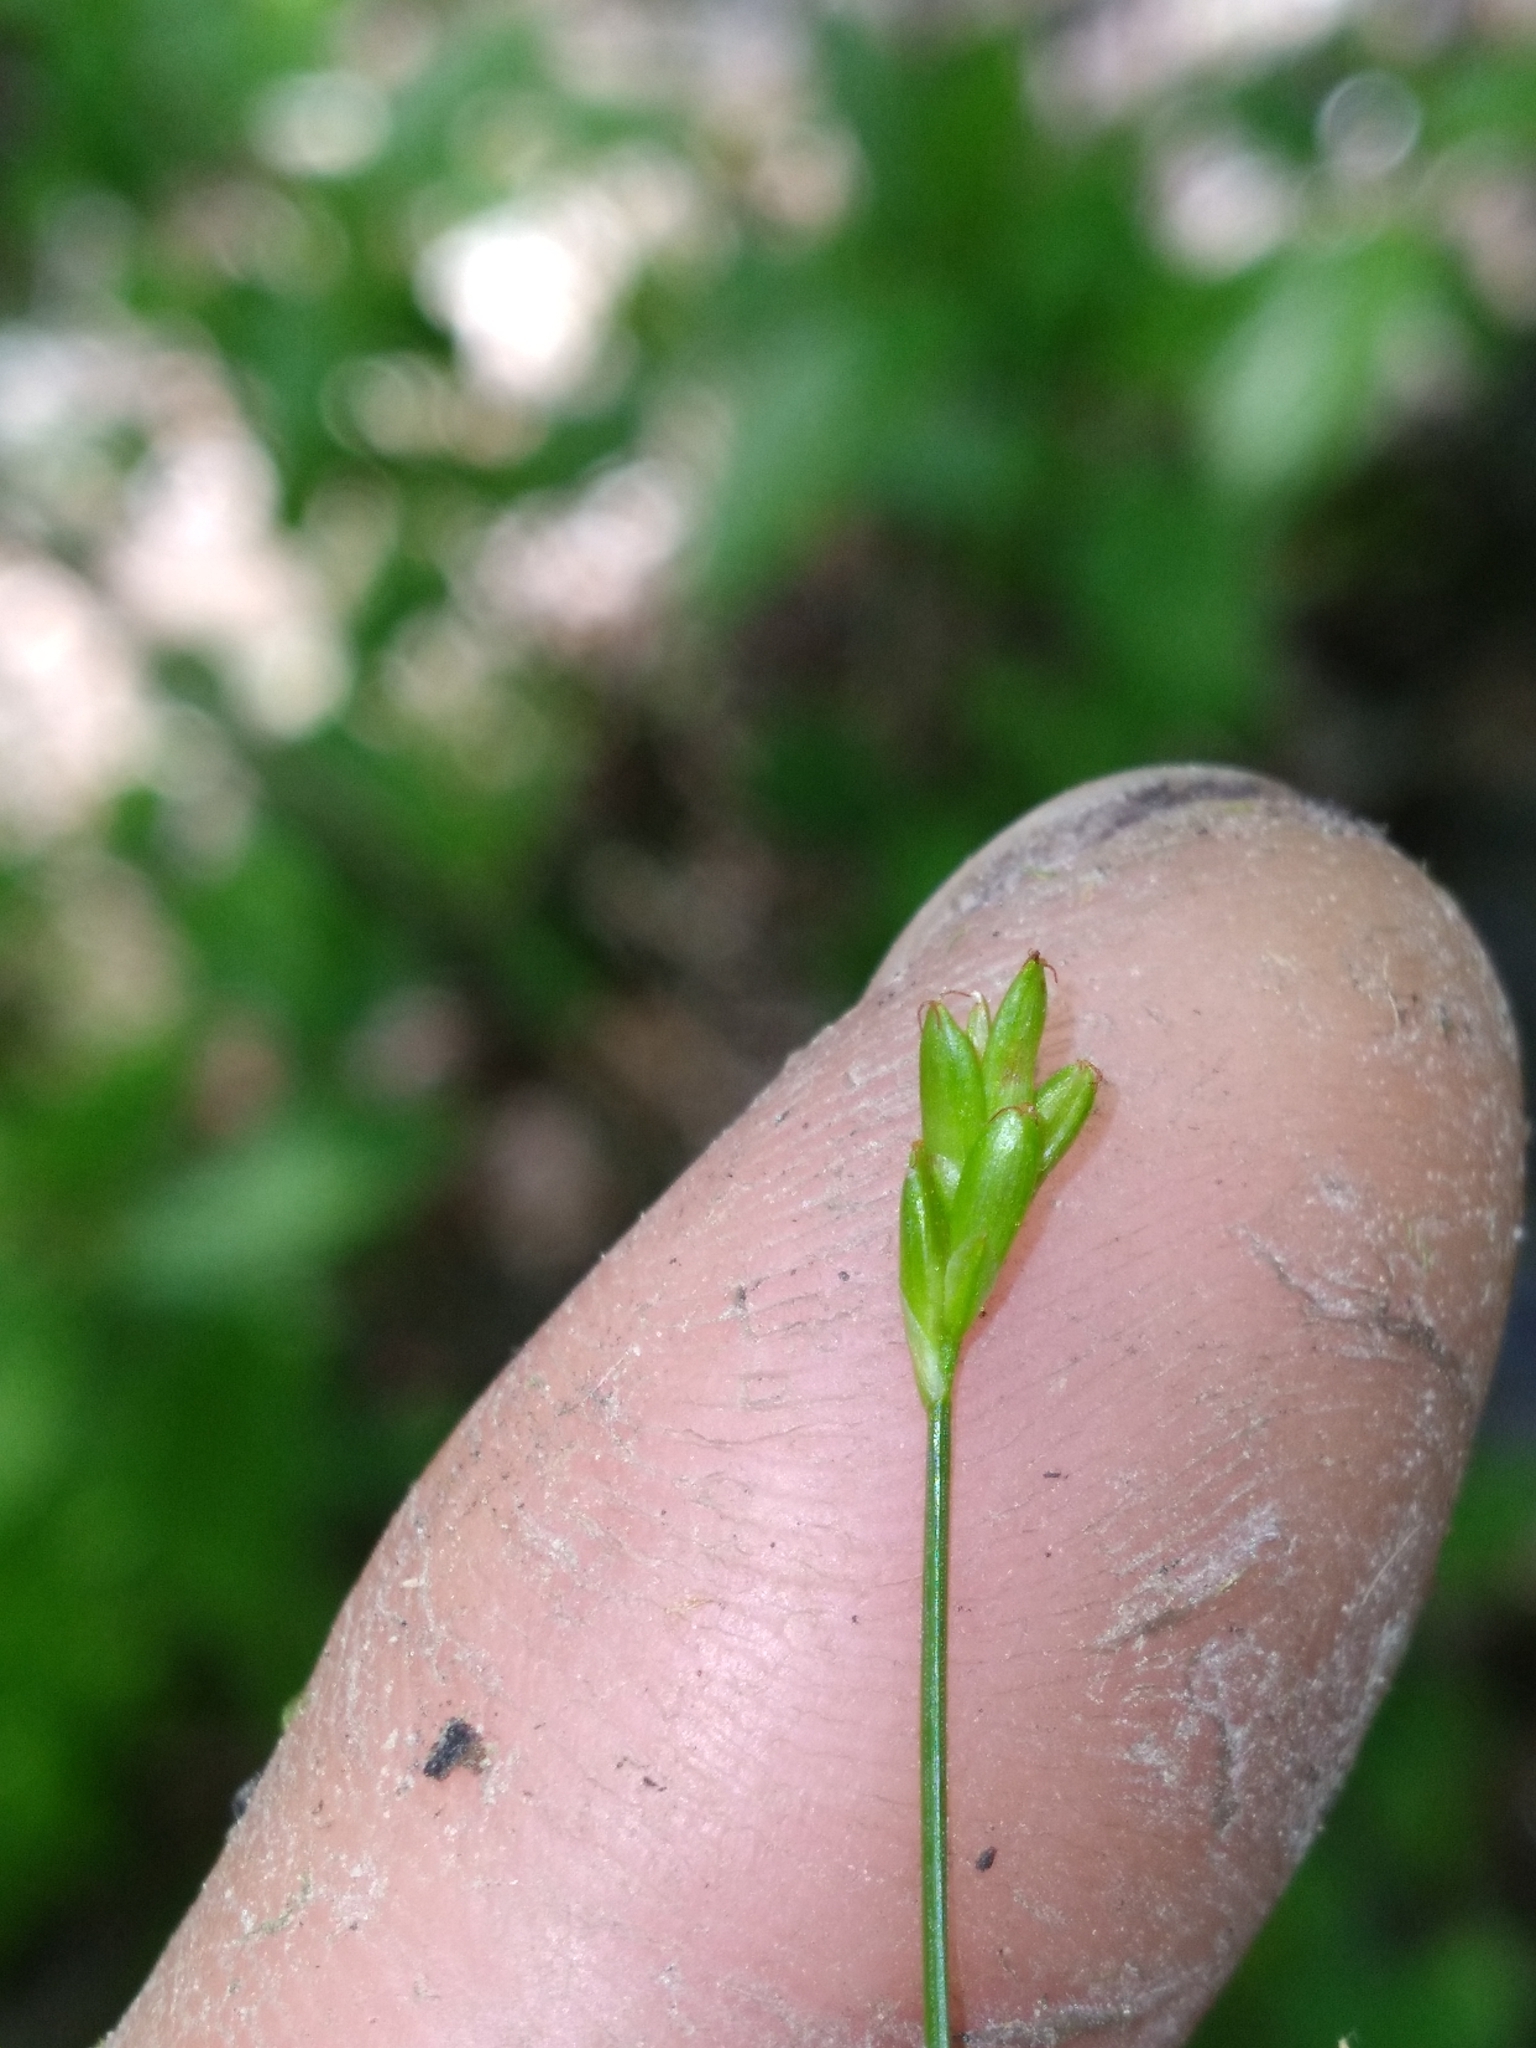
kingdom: Plantae
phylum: Tracheophyta
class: Liliopsida
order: Poales
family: Cyperaceae
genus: Carex
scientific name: Carex leptalea
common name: Bristly-stalked sedge
